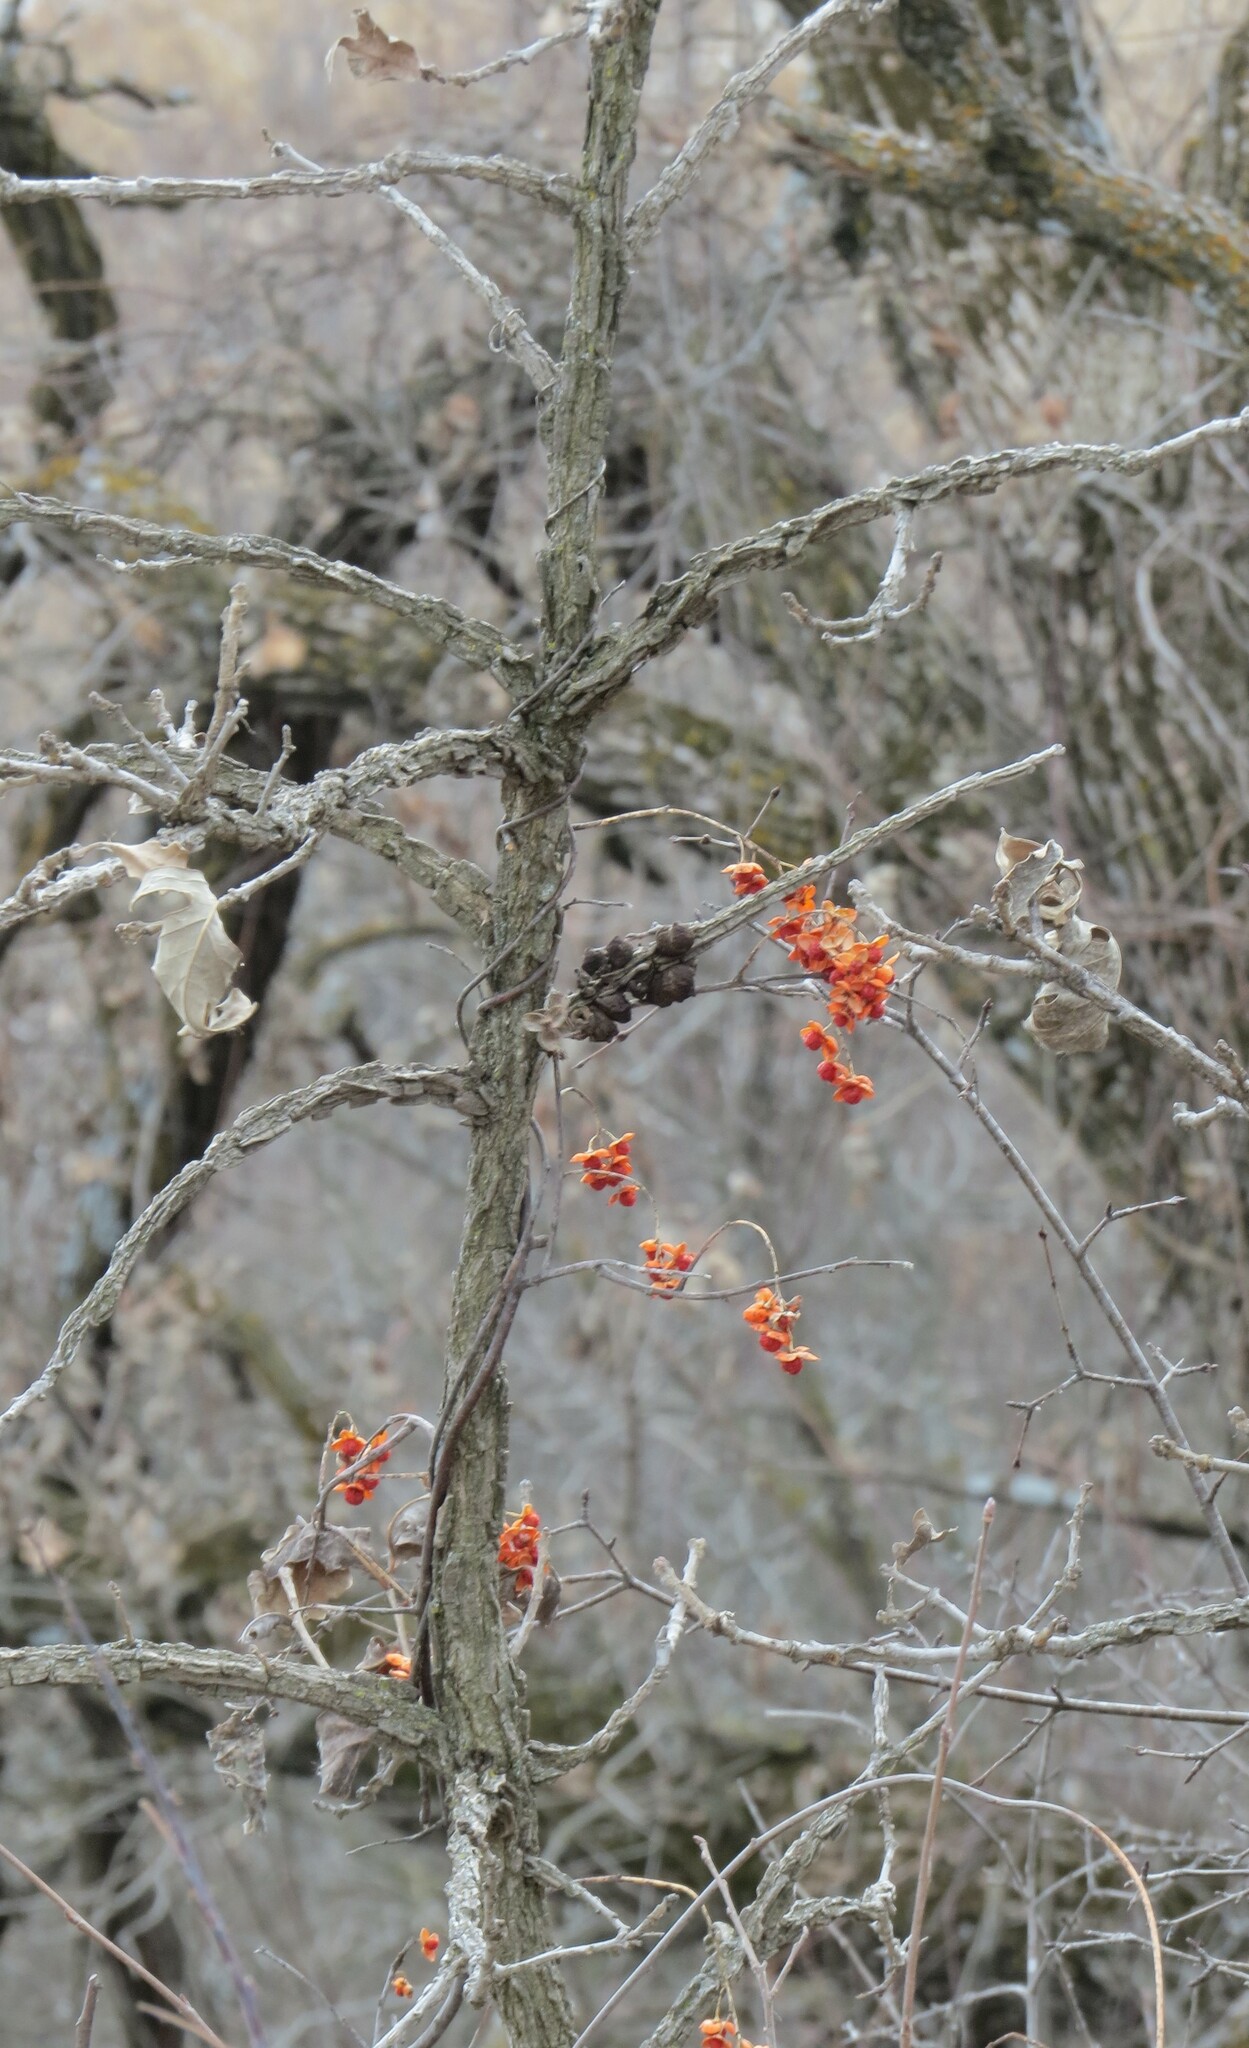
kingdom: Plantae
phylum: Tracheophyta
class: Magnoliopsida
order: Celastrales
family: Celastraceae
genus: Celastrus
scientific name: Celastrus scandens
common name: American bittersweet
